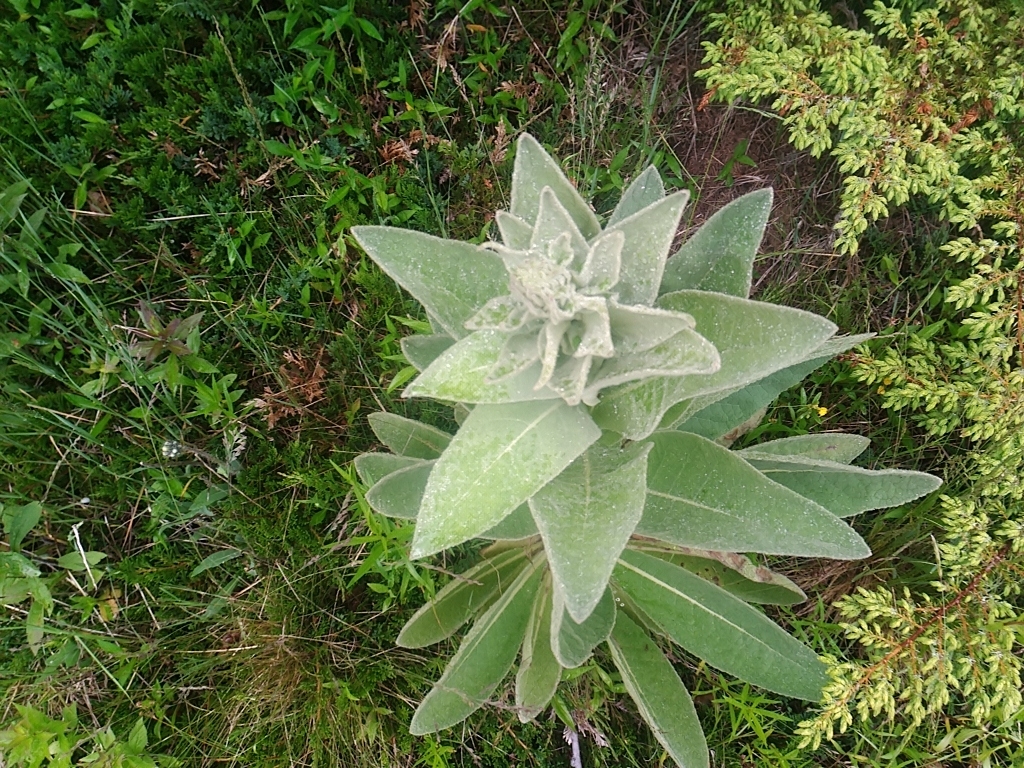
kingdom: Plantae
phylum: Tracheophyta
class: Magnoliopsida
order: Lamiales
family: Scrophulariaceae
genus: Verbascum
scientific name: Verbascum thapsus
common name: Common mullein
